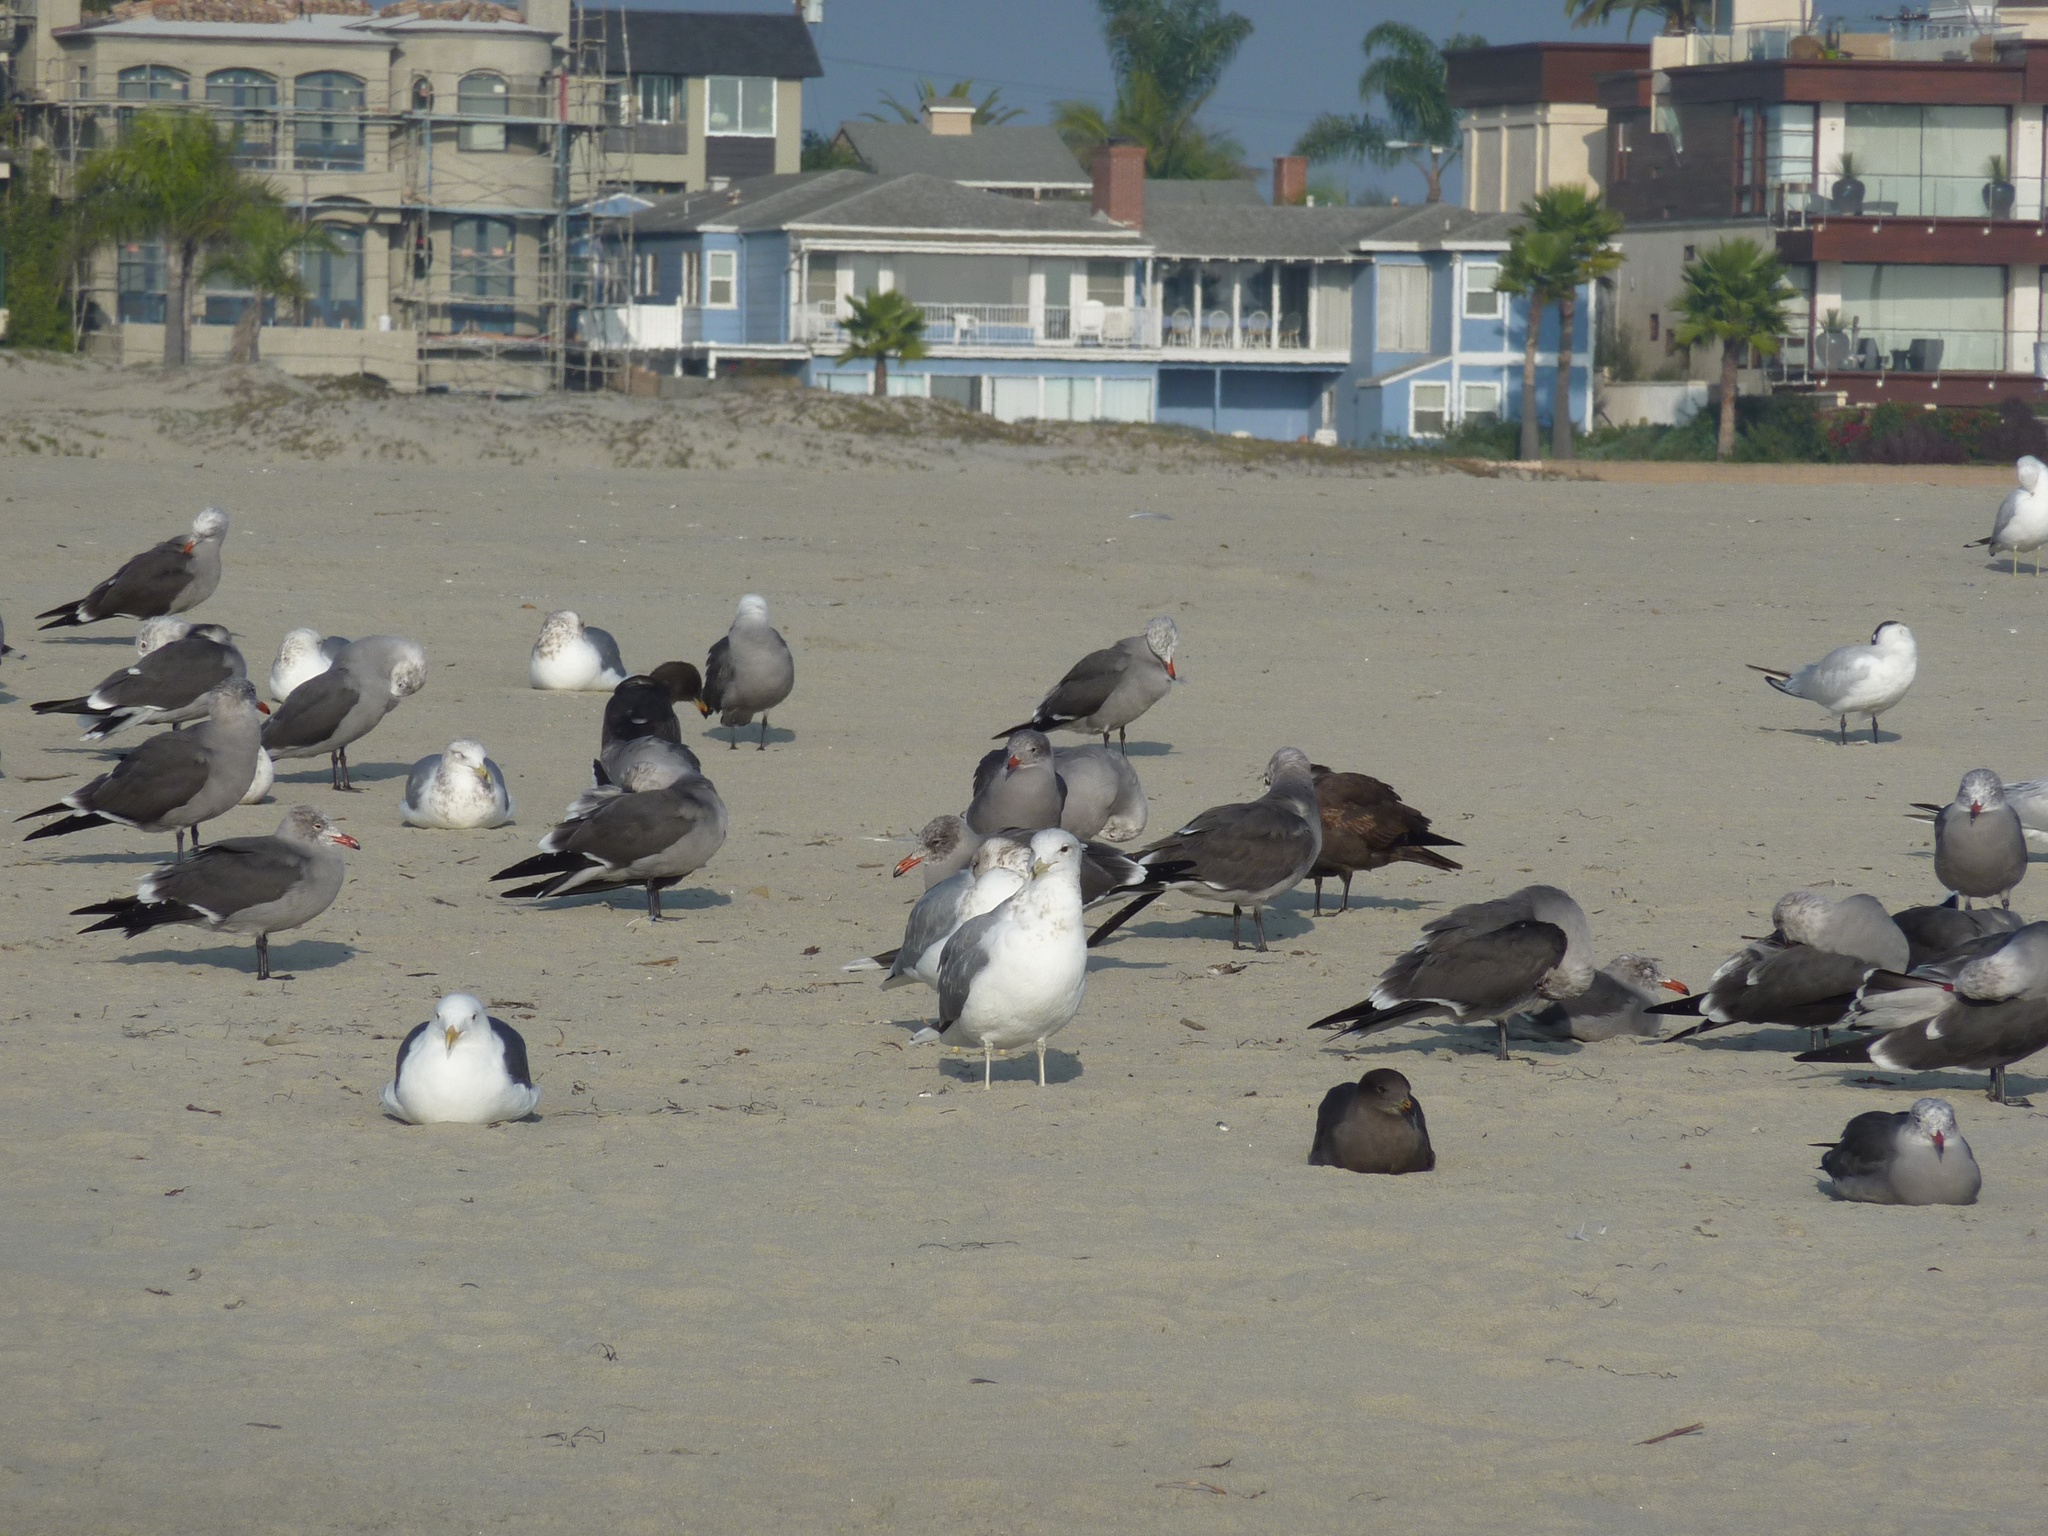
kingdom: Animalia
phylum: Chordata
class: Aves
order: Charadriiformes
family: Laridae
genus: Larus
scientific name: Larus delawarensis
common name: Ring-billed gull
